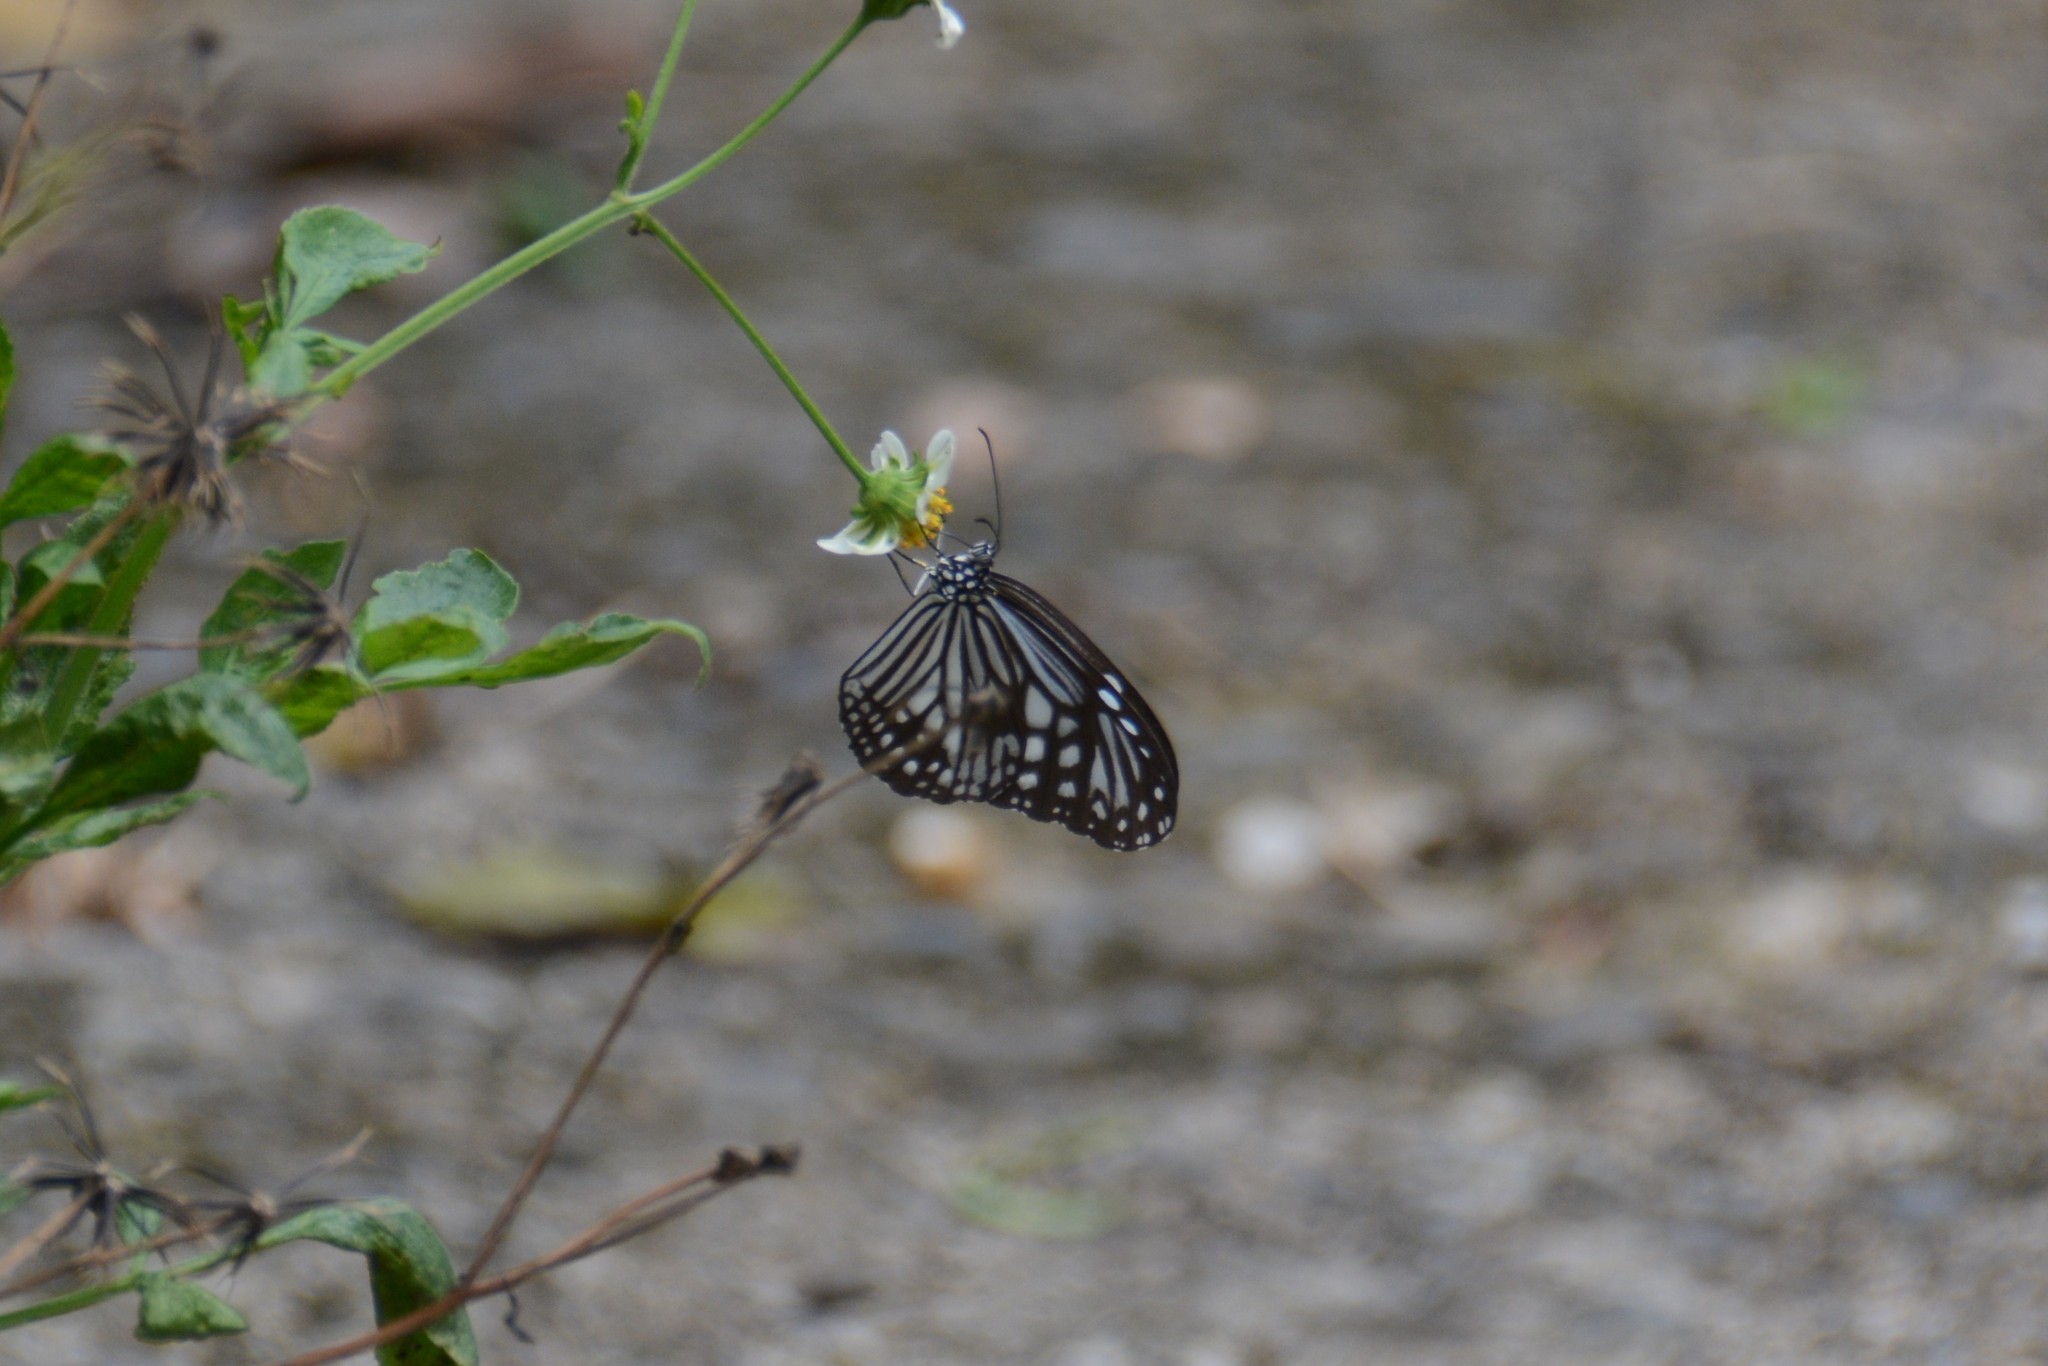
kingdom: Animalia
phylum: Arthropoda
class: Insecta
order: Lepidoptera
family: Nymphalidae
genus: Parantica
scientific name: Parantica aglea
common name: Glassy tiger
